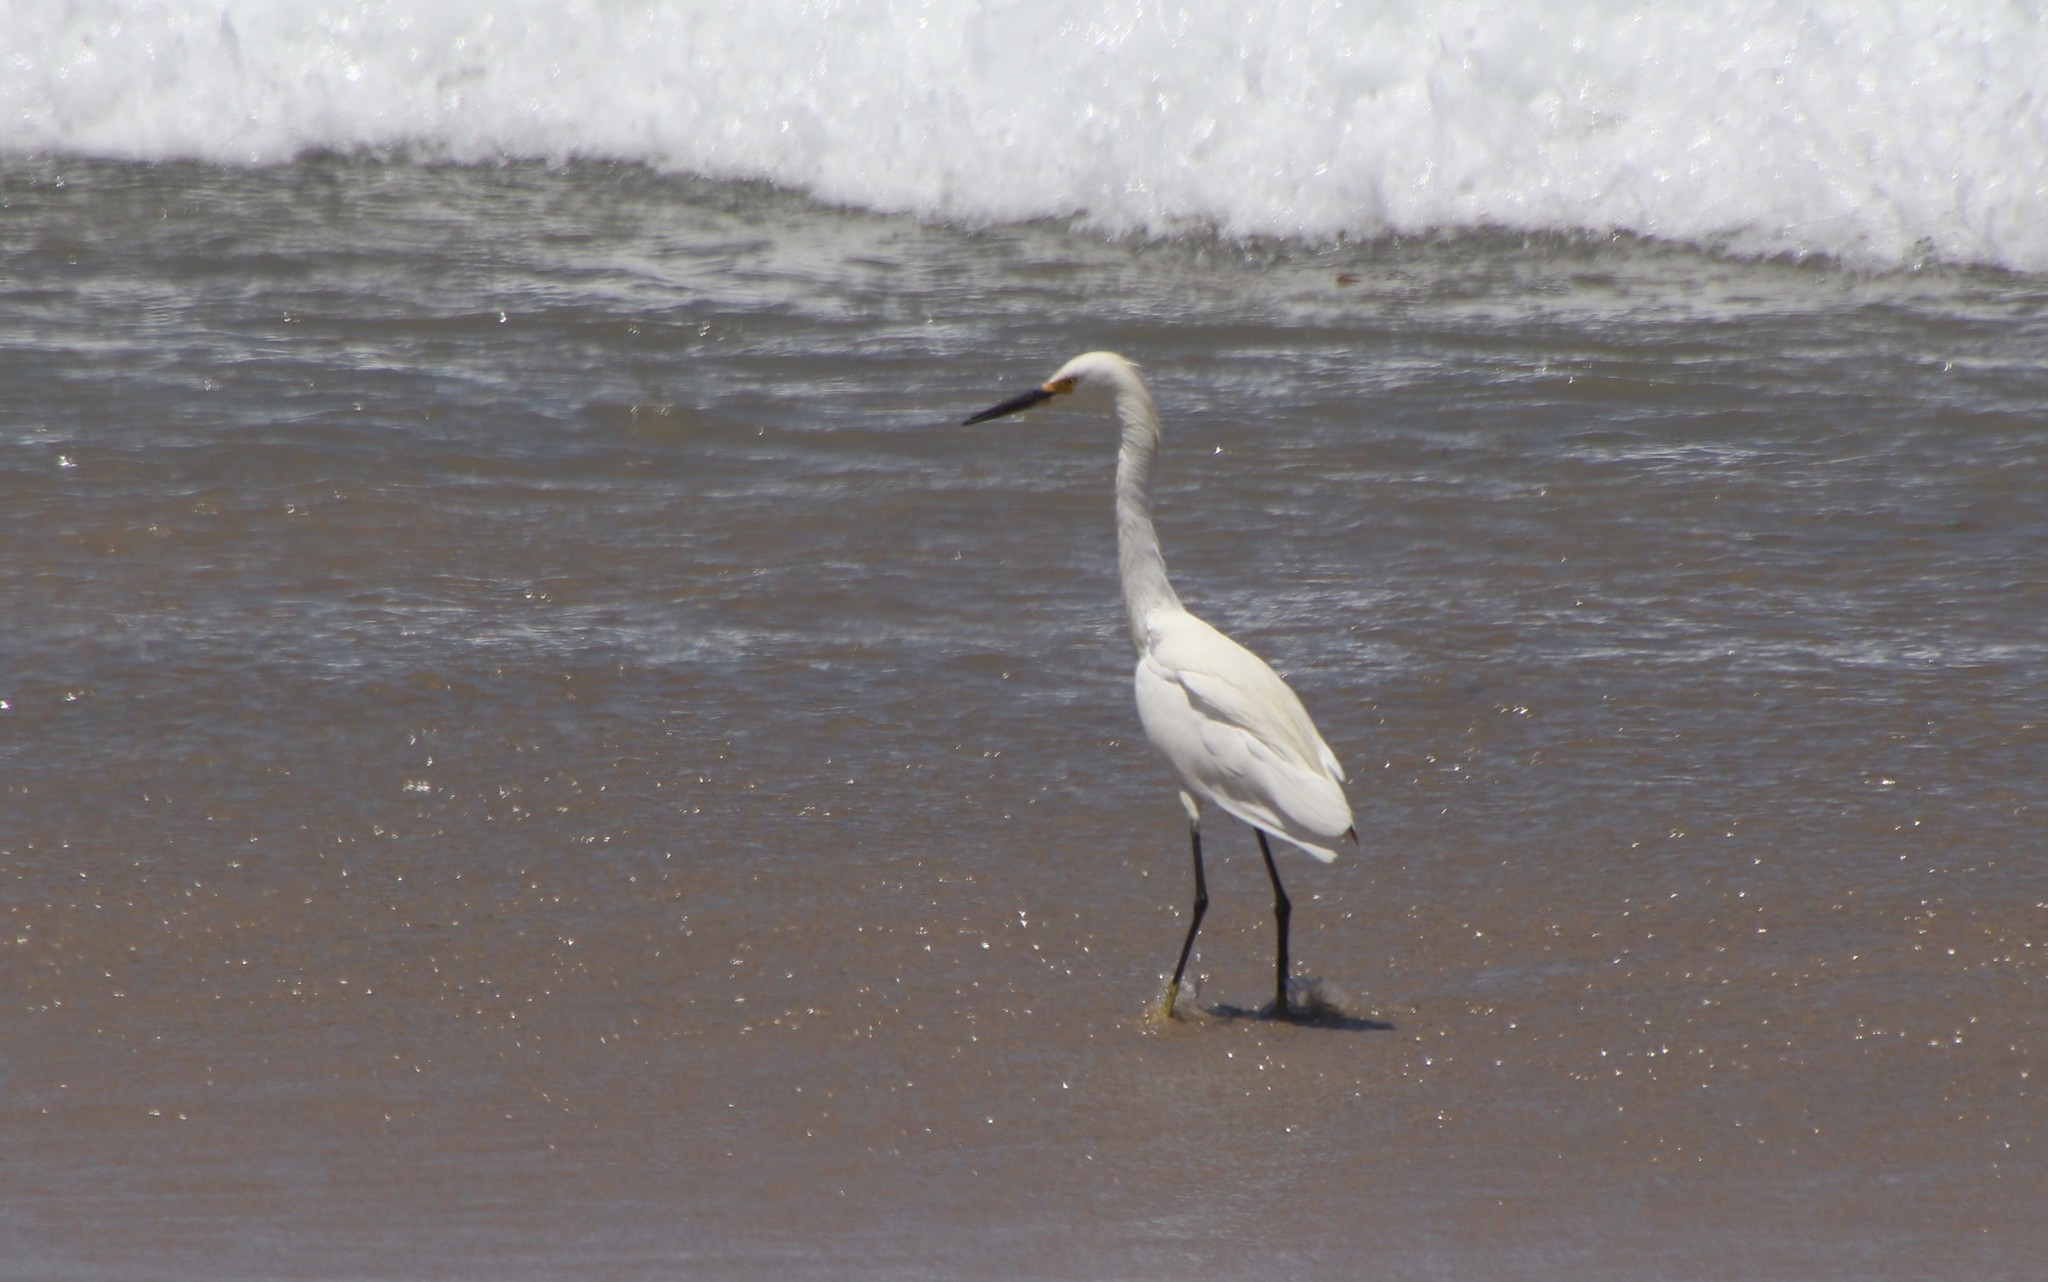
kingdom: Animalia
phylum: Chordata
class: Aves
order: Pelecaniformes
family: Ardeidae
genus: Egretta
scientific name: Egretta thula
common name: Snowy egret
